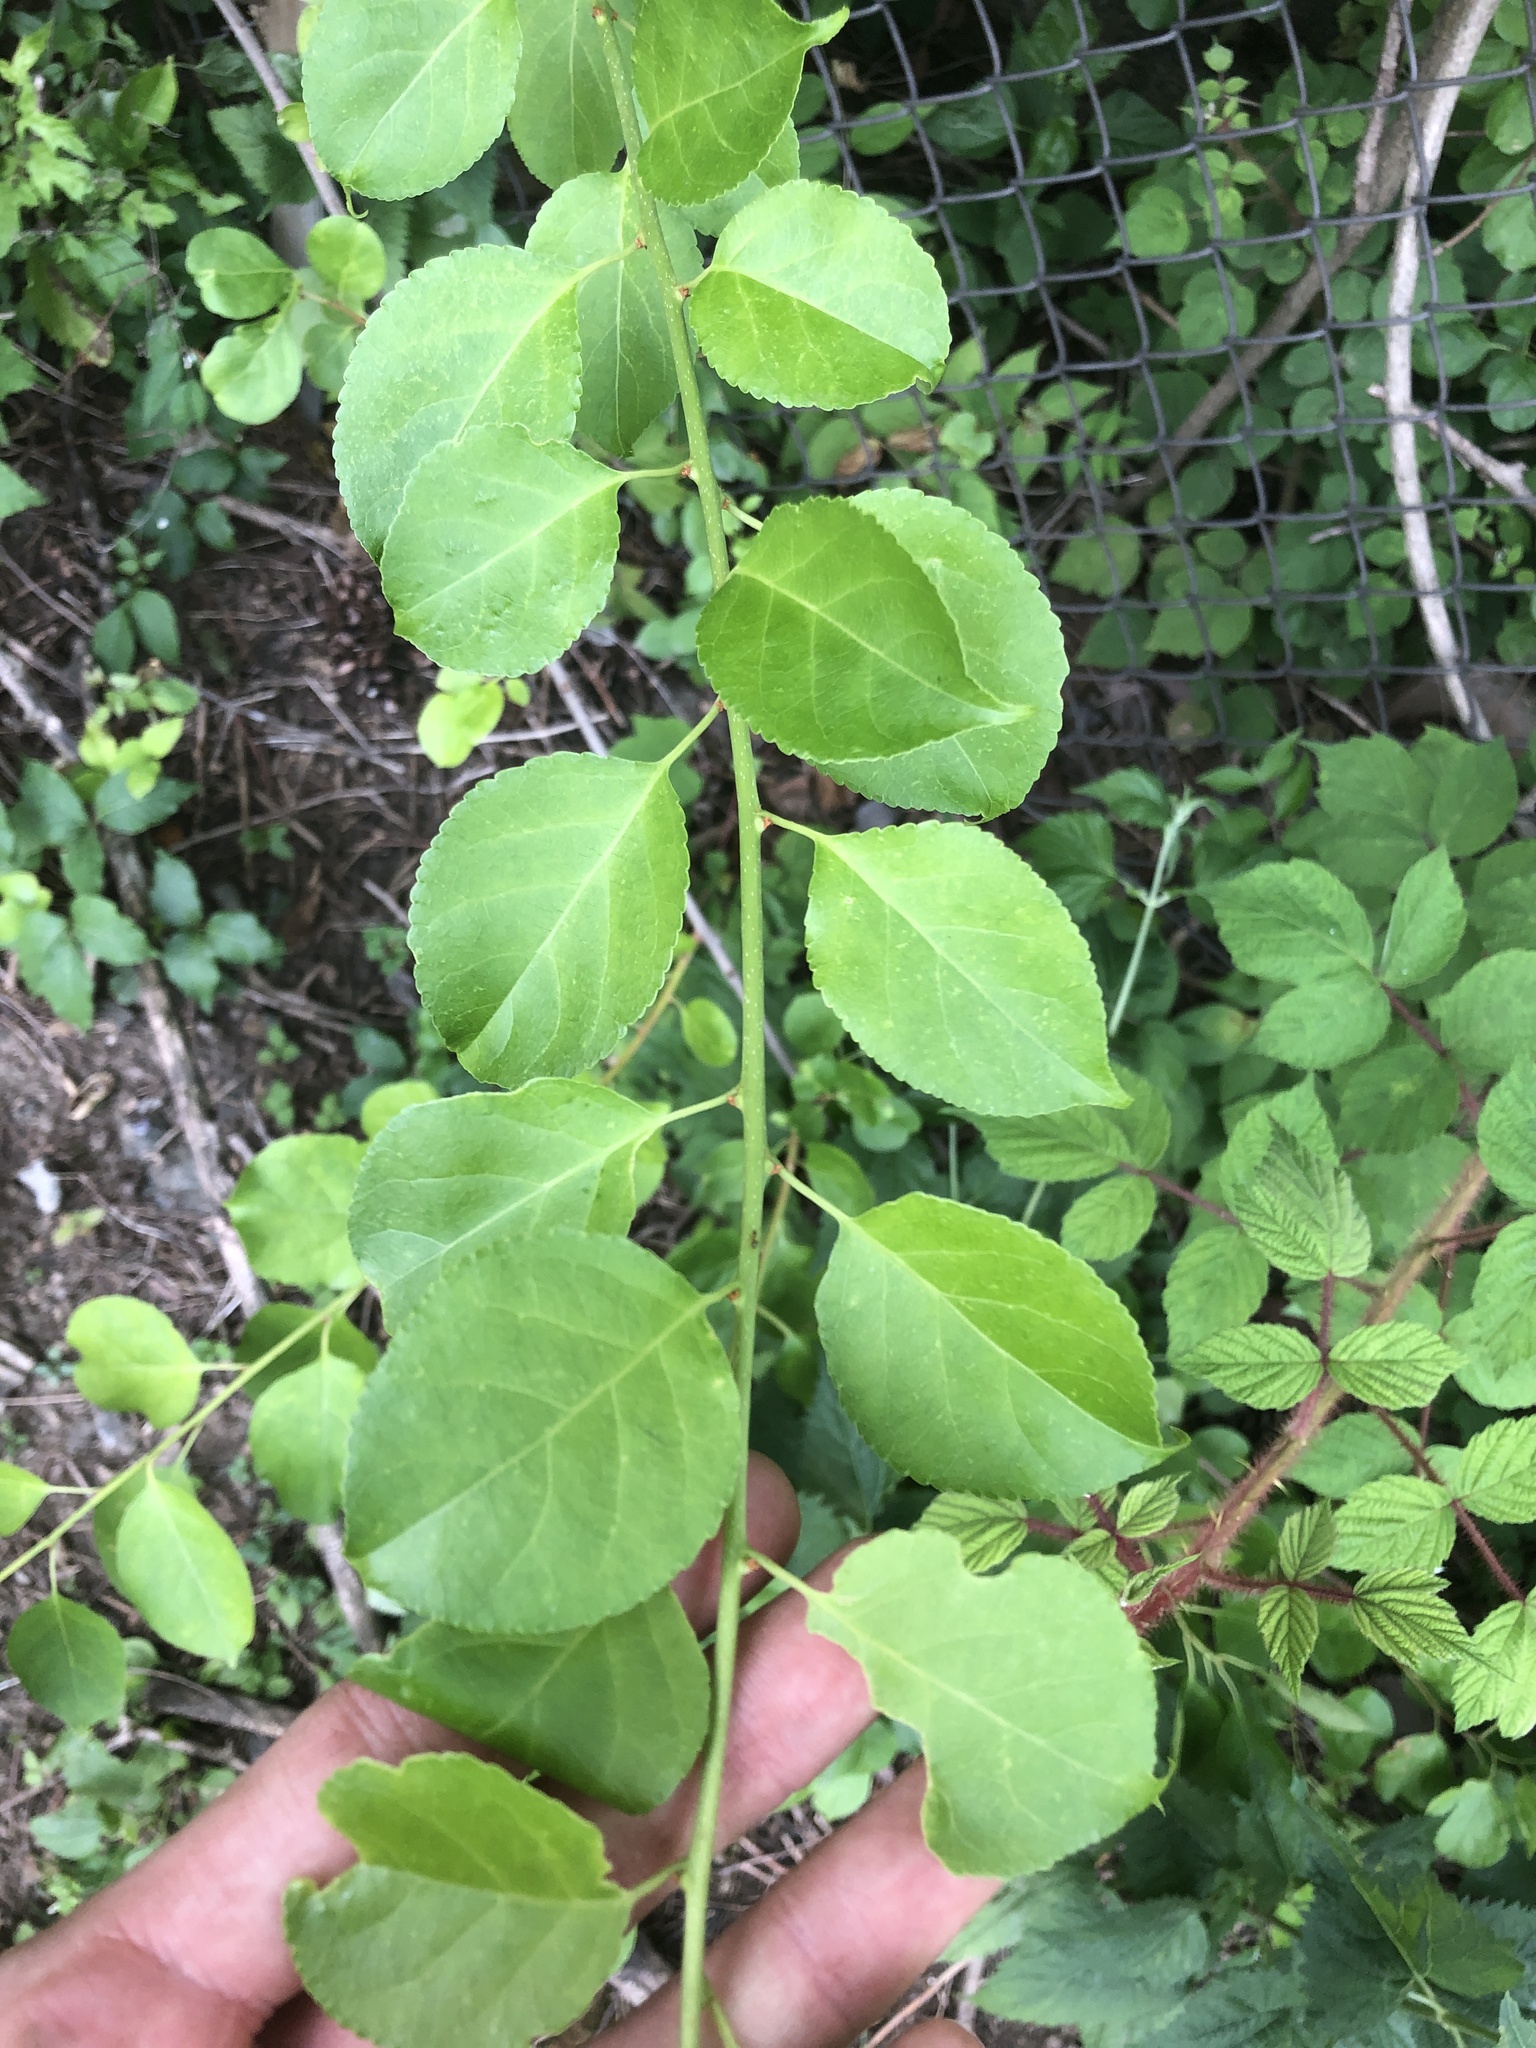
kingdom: Plantae
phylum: Tracheophyta
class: Magnoliopsida
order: Celastrales
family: Celastraceae
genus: Celastrus
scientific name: Celastrus orbiculatus
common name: Oriental bittersweet
